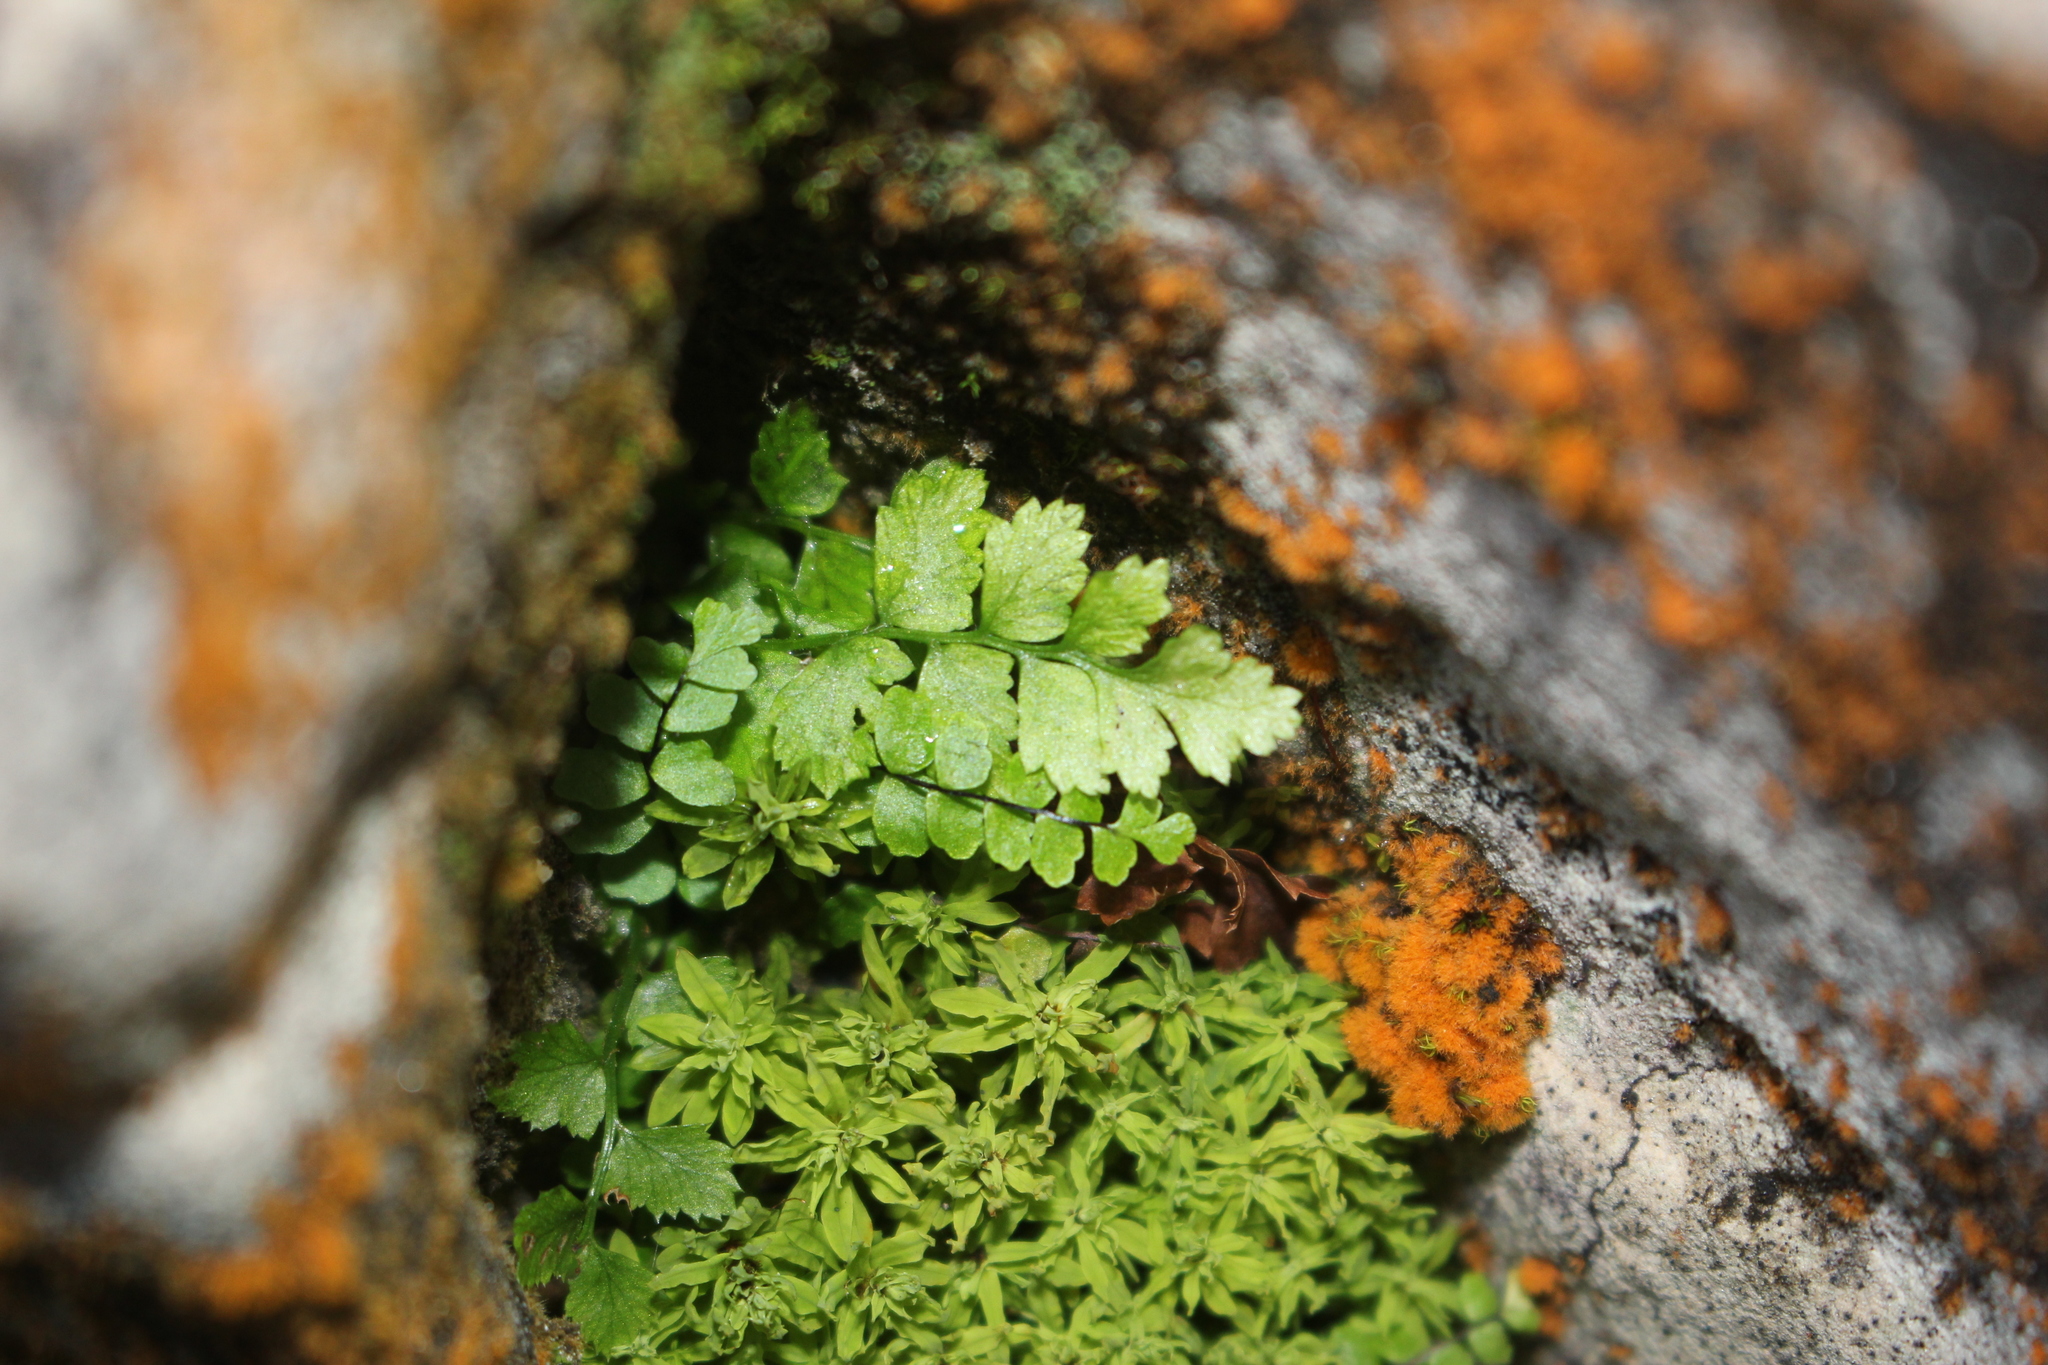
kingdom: Plantae
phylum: Tracheophyta
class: Polypodiopsida
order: Polypodiales
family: Pteridaceae
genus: Cryptogramma
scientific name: Cryptogramma stelleri
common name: Cliff-brake
